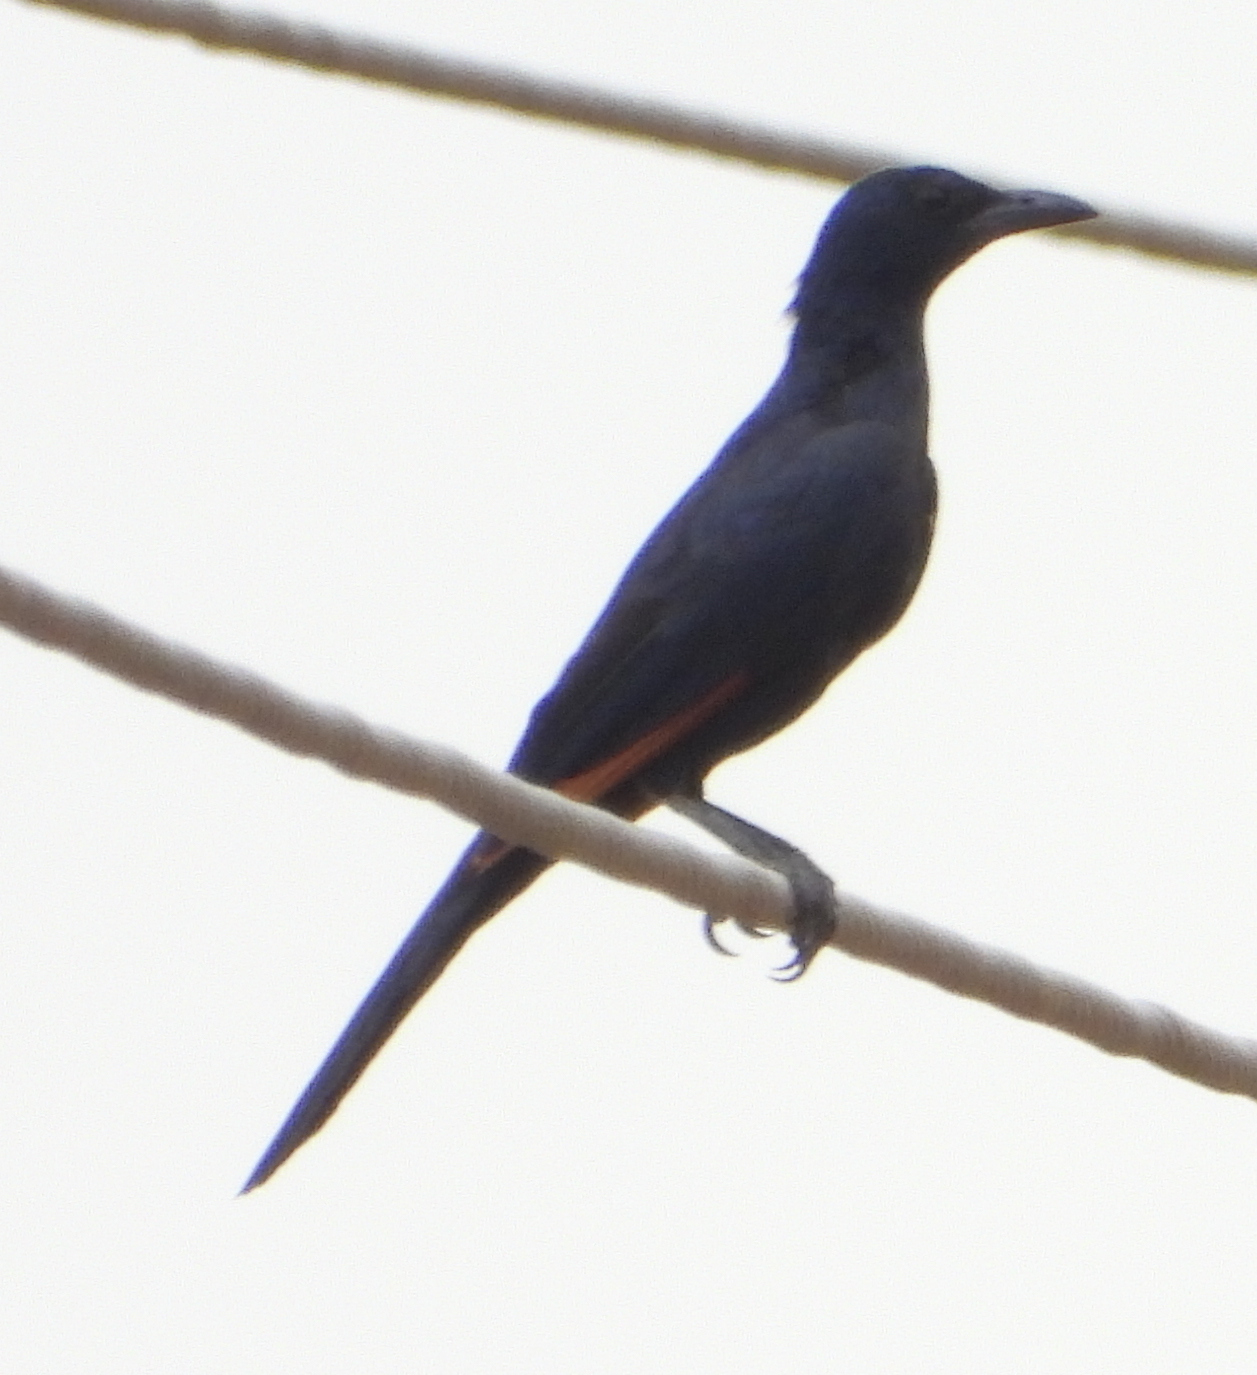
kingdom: Animalia
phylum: Chordata
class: Aves
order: Passeriformes
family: Sturnidae
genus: Onychognathus
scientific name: Onychognathus morio
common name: Red-winged starling
